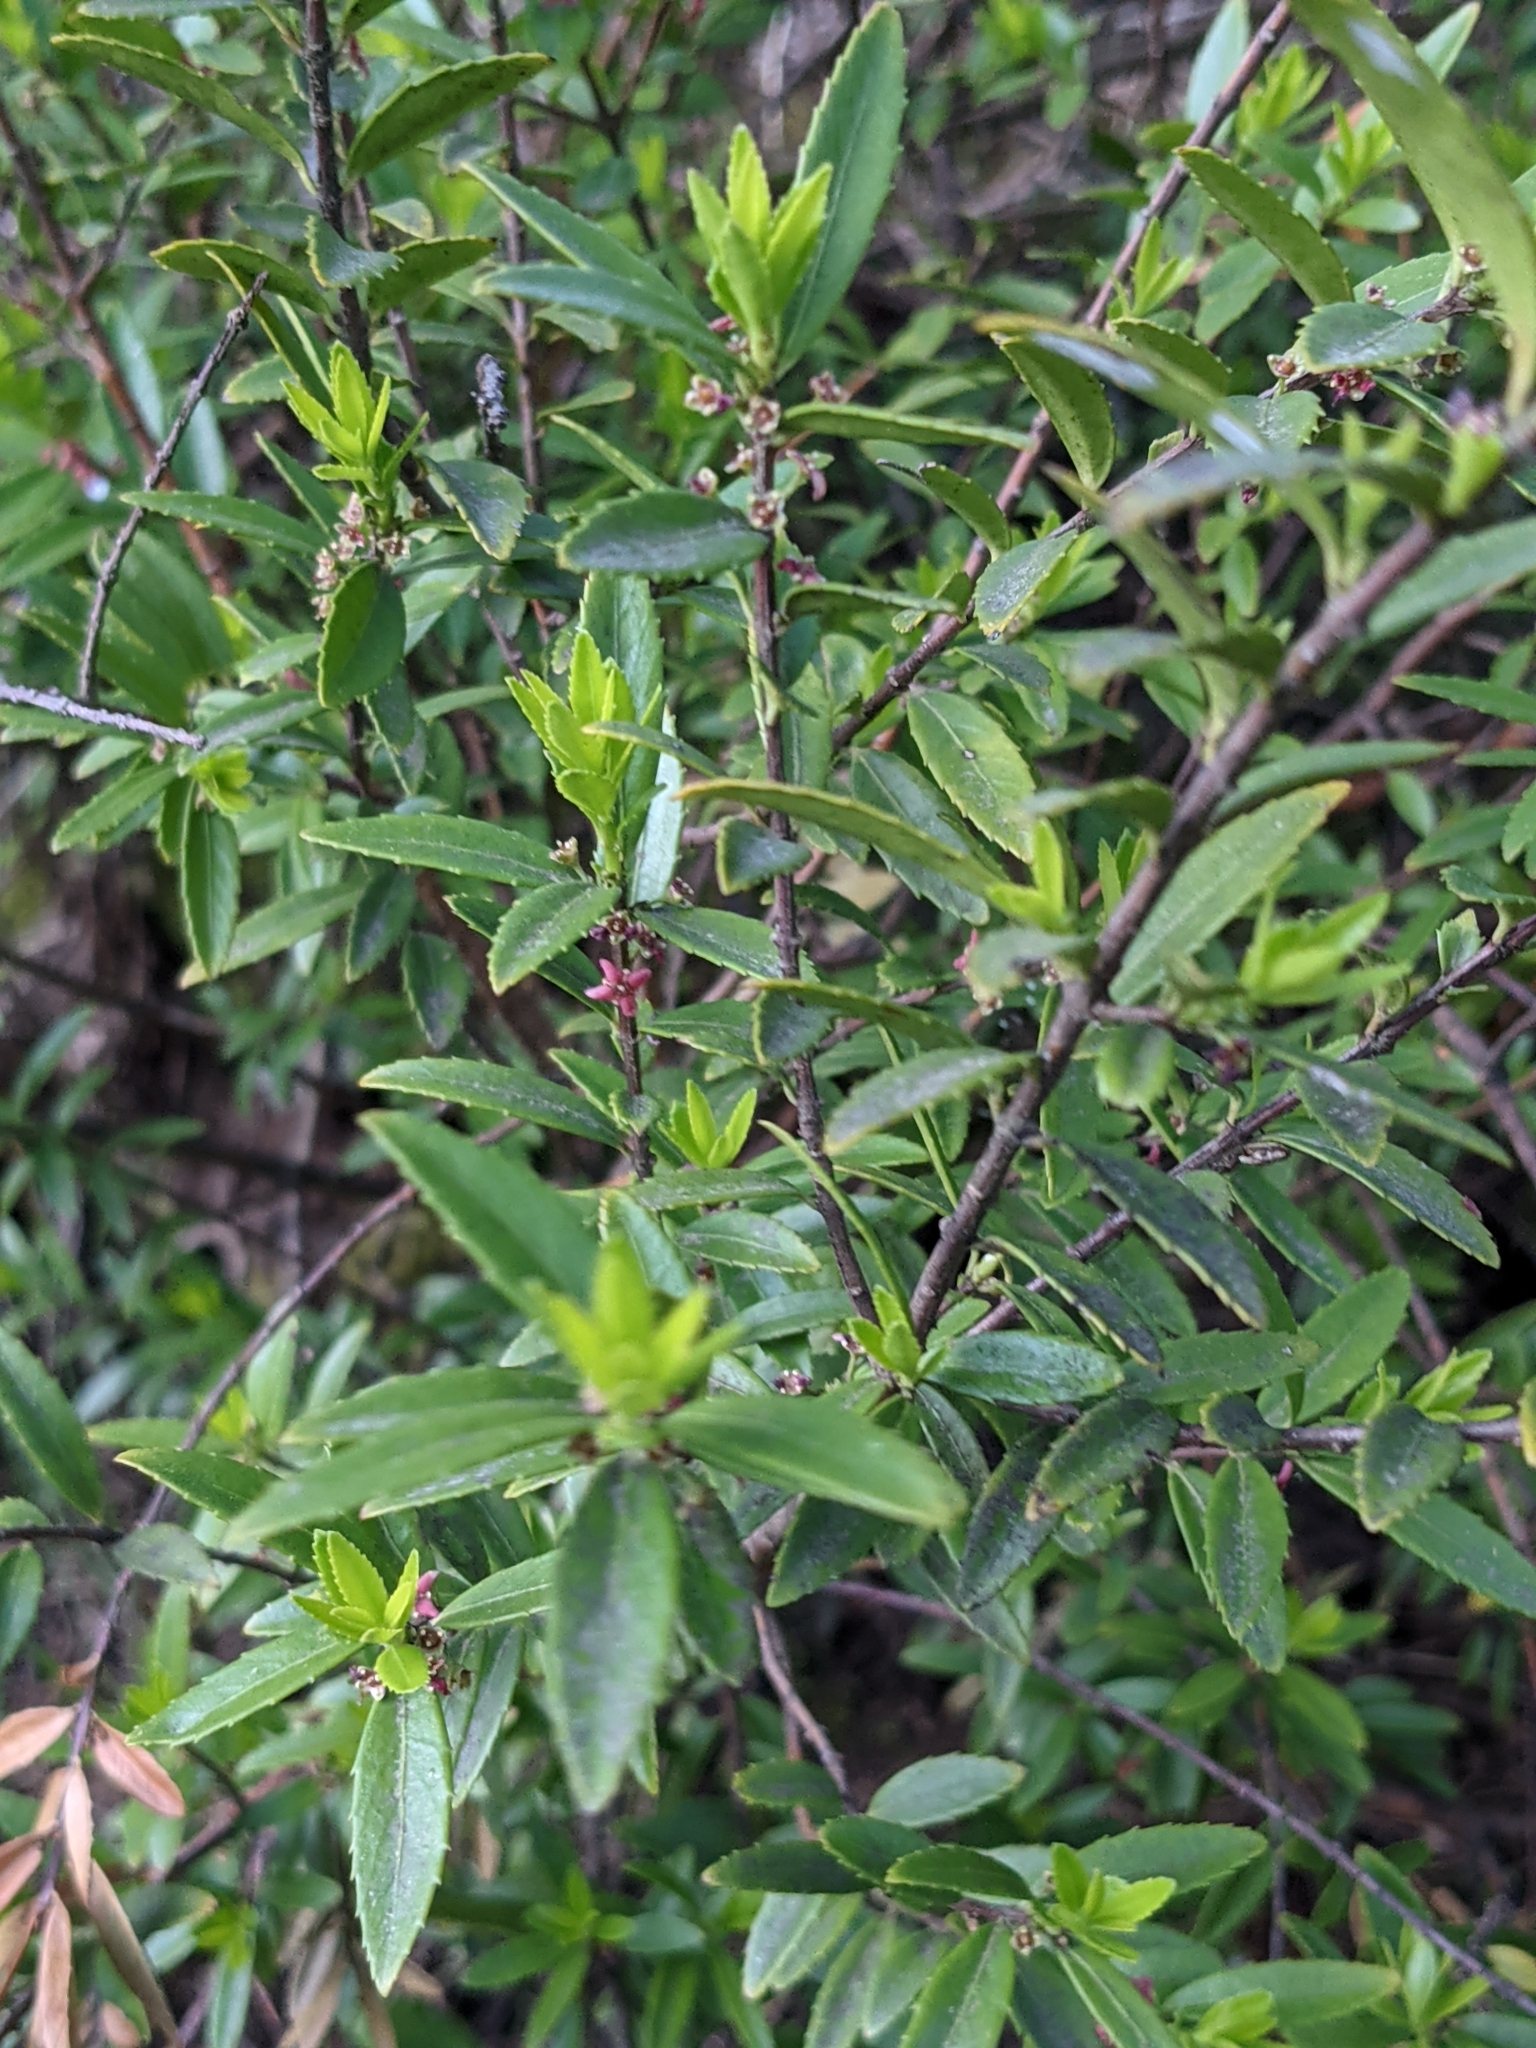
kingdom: Plantae
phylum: Tracheophyta
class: Magnoliopsida
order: Celastrales
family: Celastraceae
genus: Paxistima
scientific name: Paxistima myrsinites
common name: Mountain-lover
